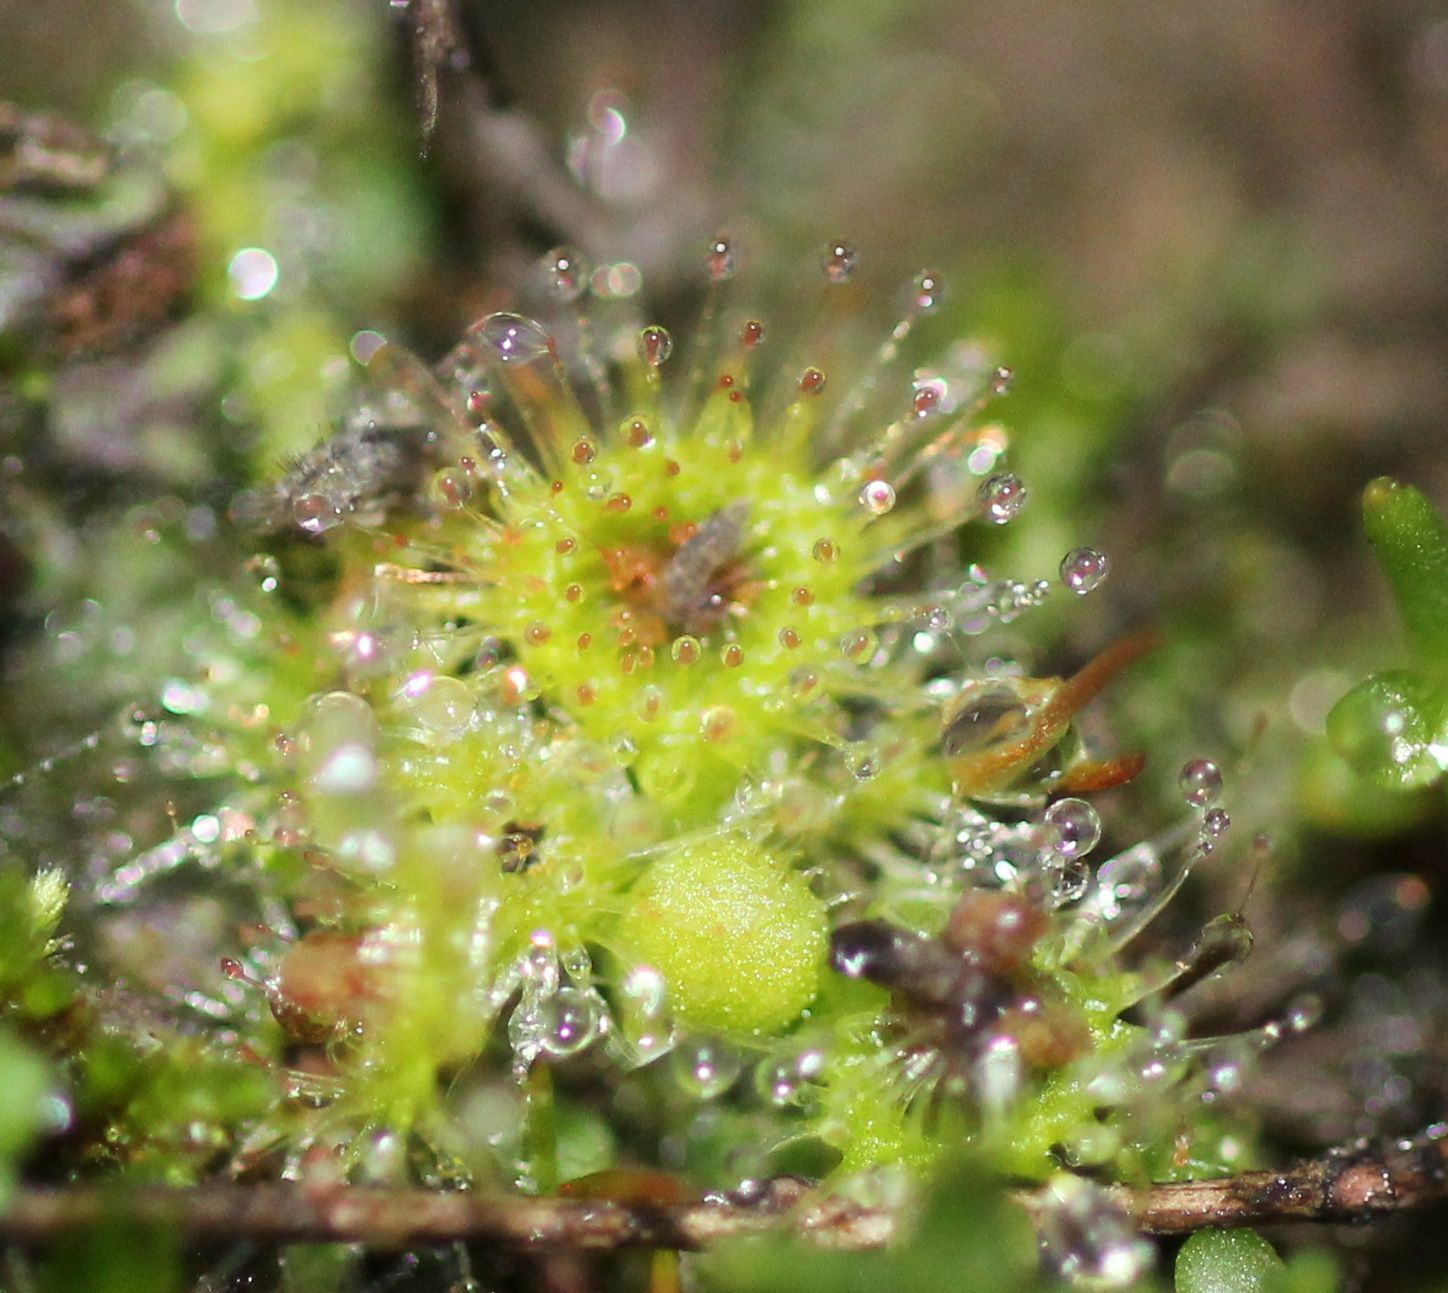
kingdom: Plantae
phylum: Tracheophyta
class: Magnoliopsida
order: Caryophyllales
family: Droseraceae
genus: Drosera
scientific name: Drosera glanduligera
